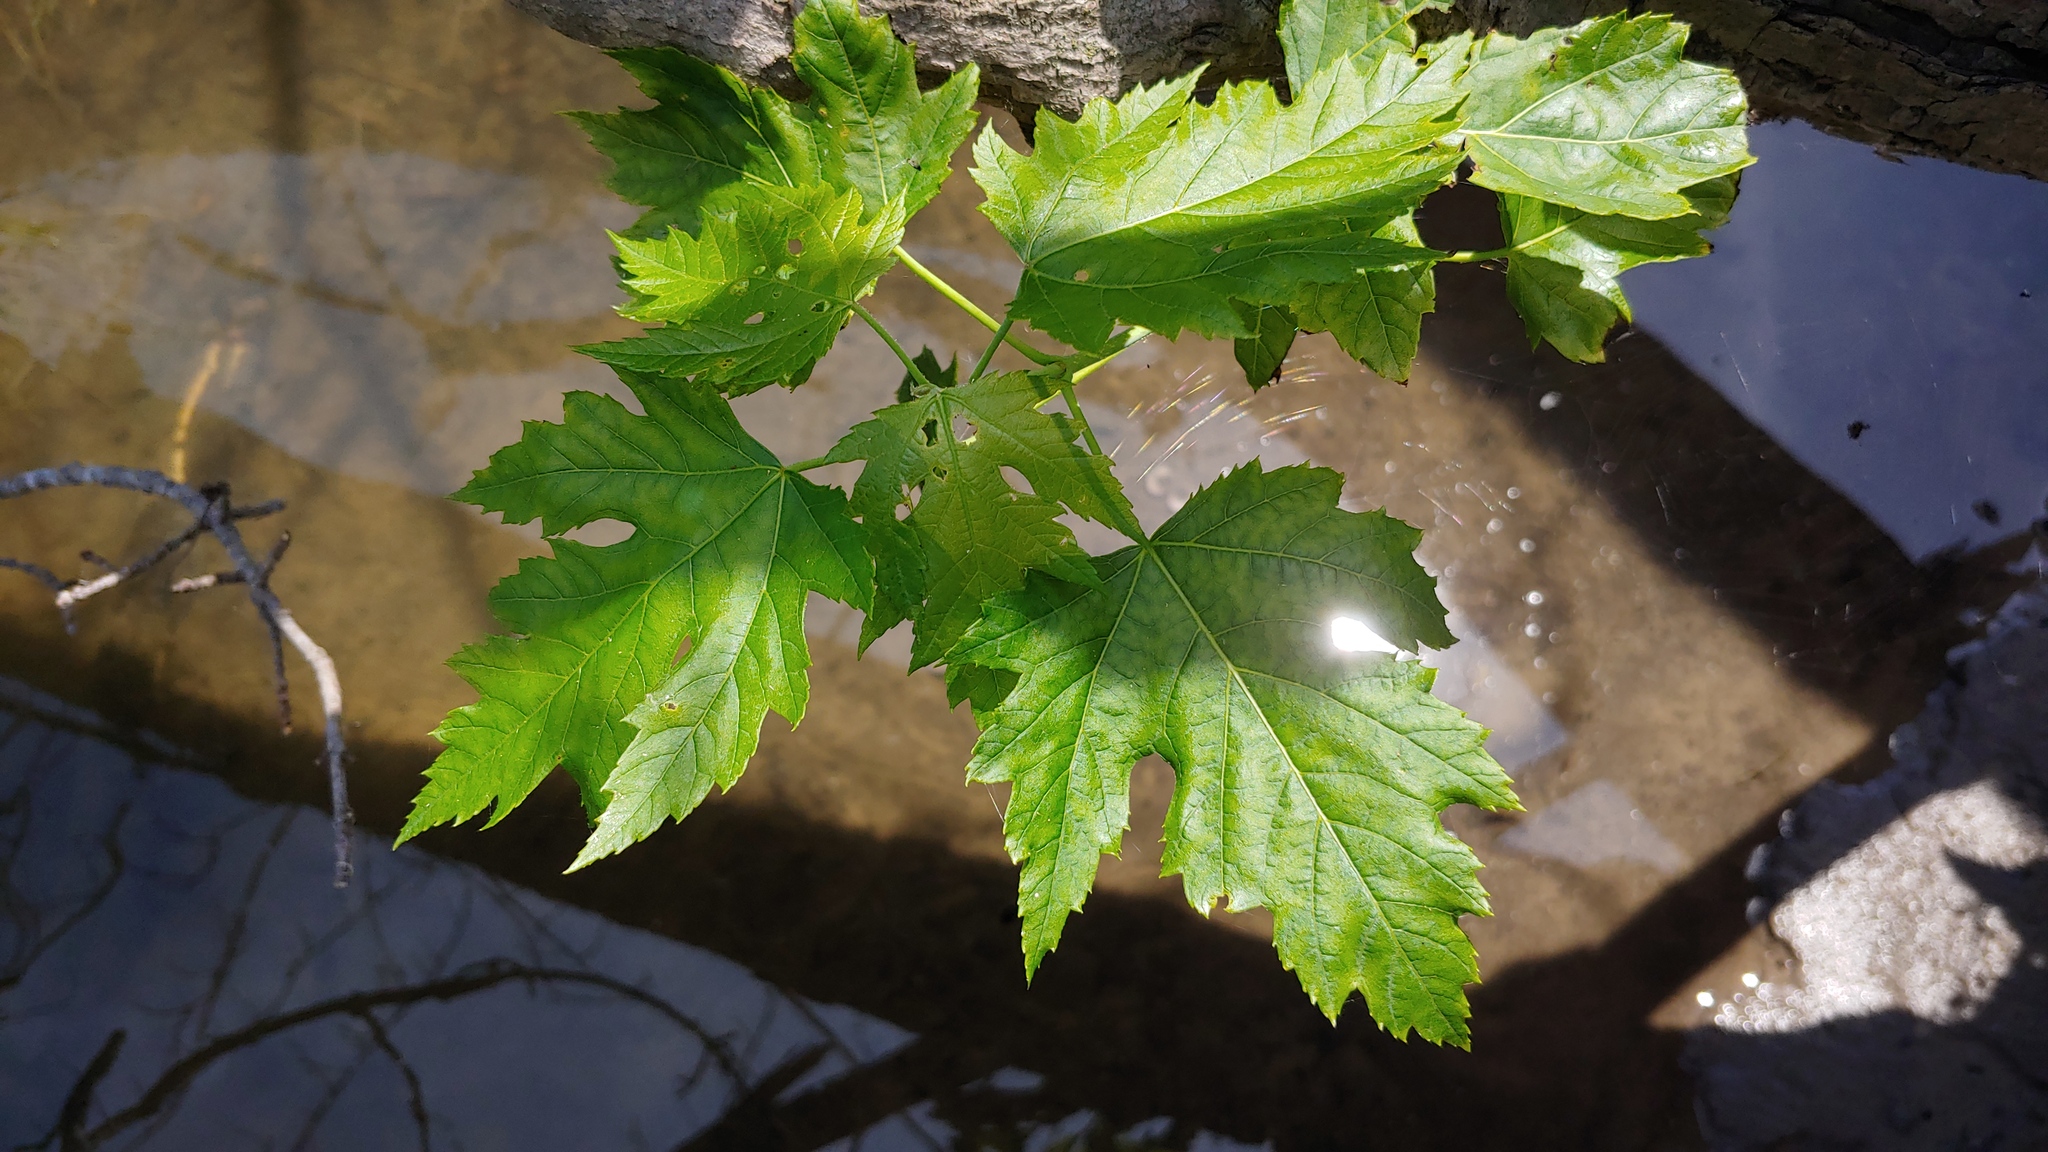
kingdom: Plantae
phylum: Tracheophyta
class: Magnoliopsida
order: Sapindales
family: Sapindaceae
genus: Acer
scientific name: Acer saccharinum
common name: Silver maple
